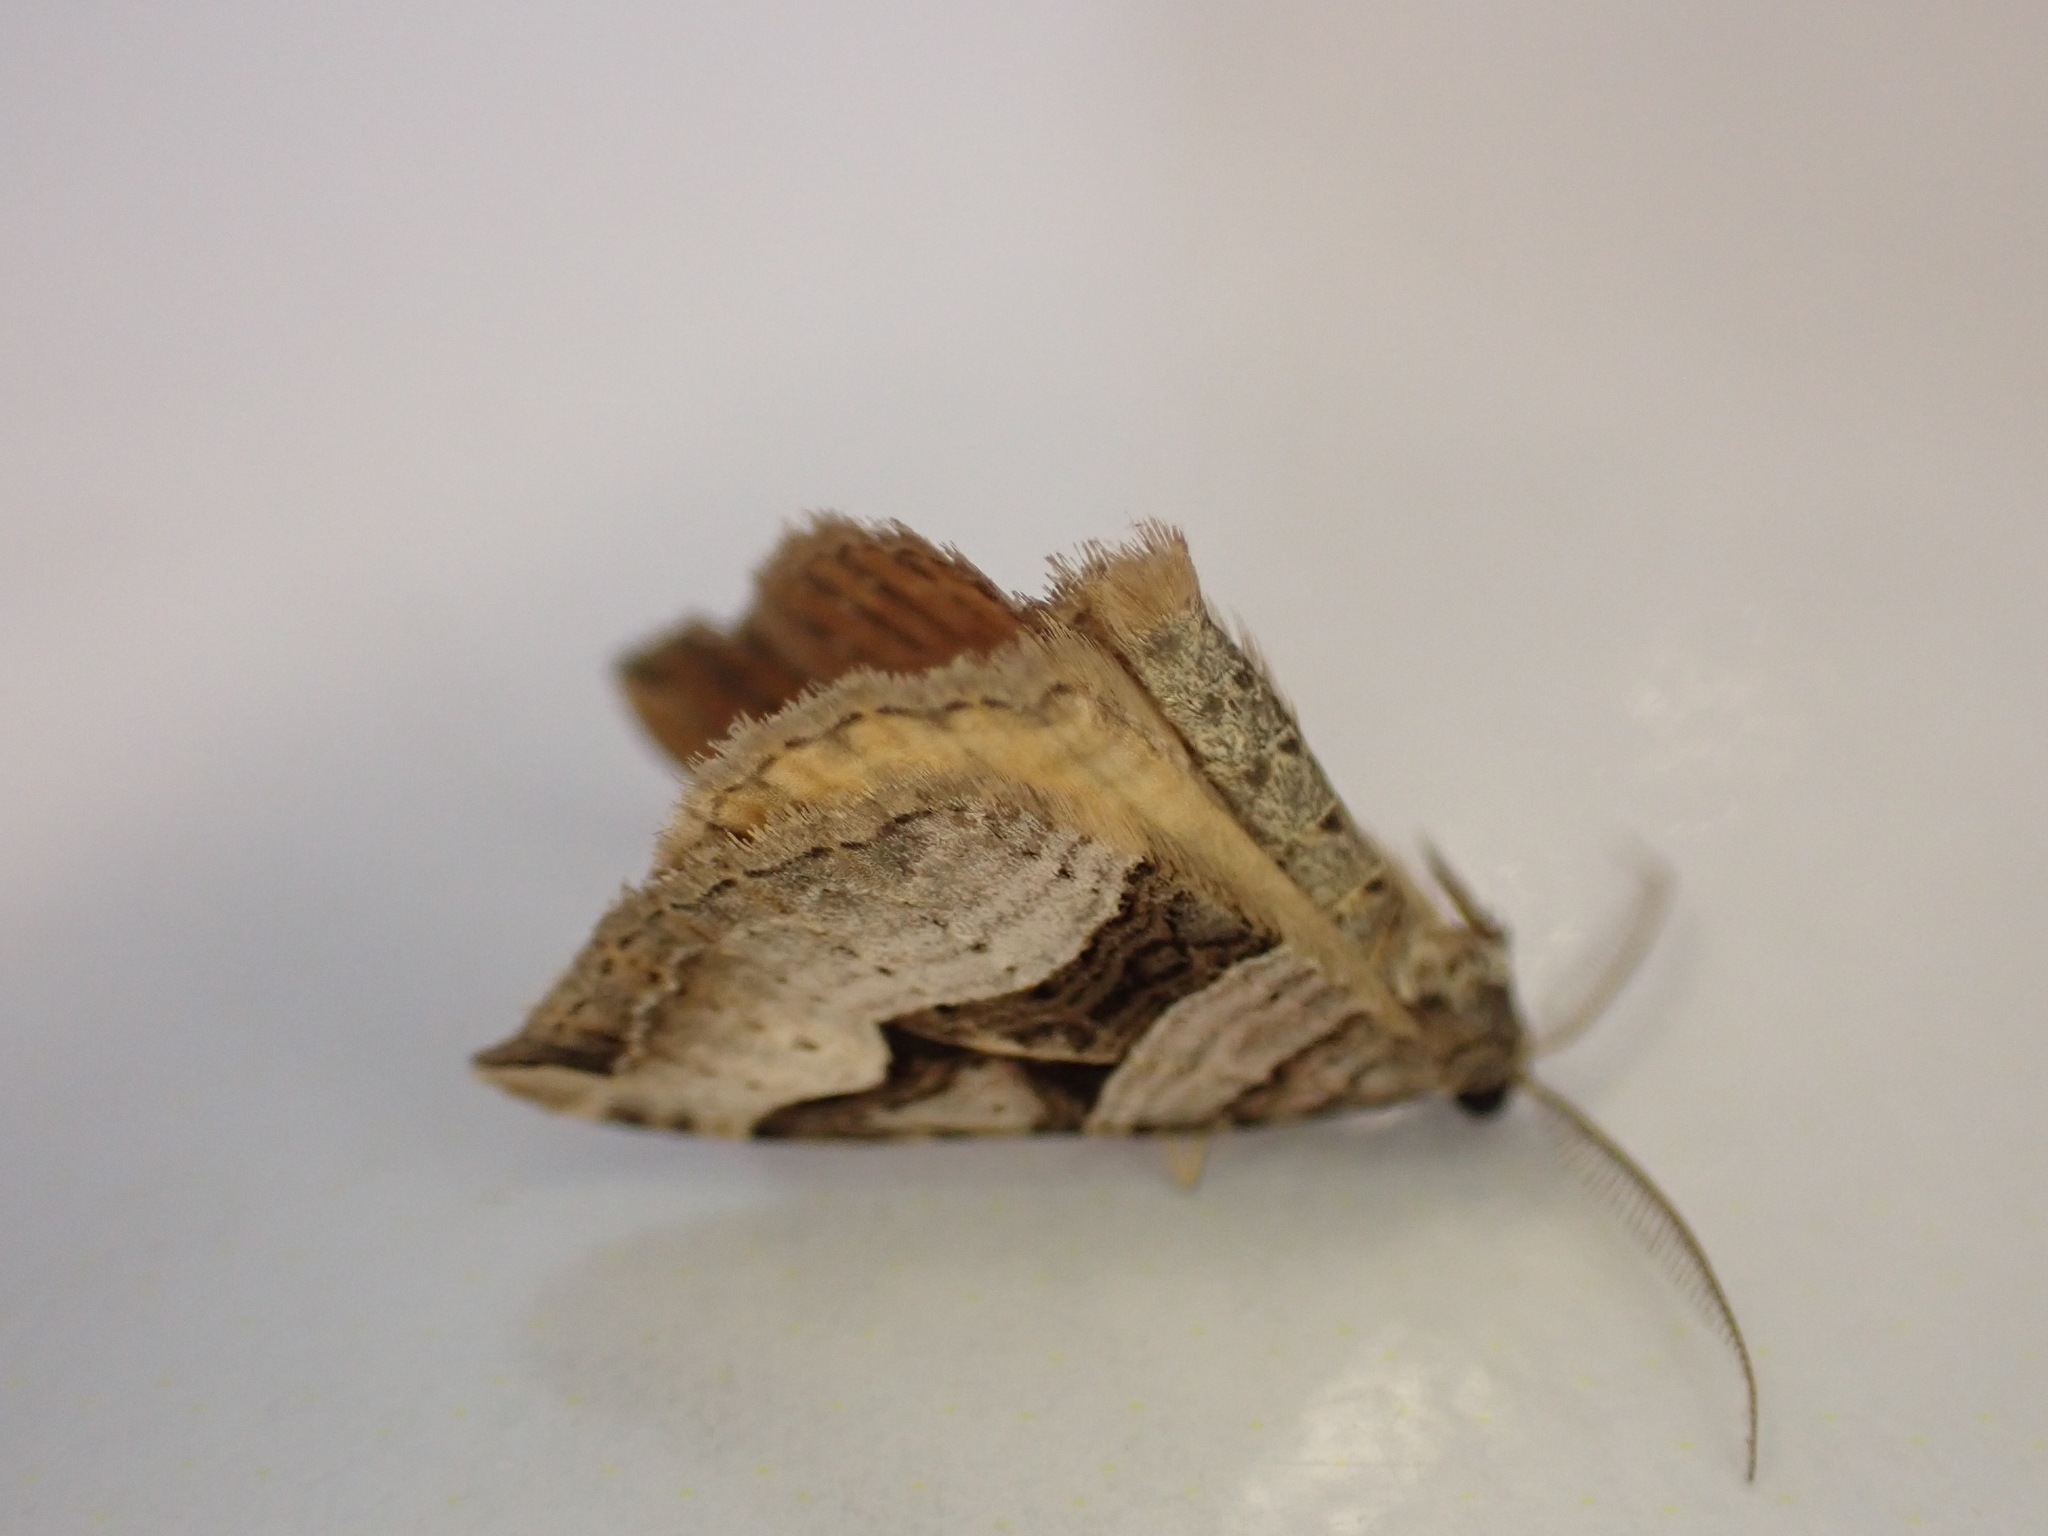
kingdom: Animalia
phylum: Arthropoda
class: Insecta
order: Lepidoptera
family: Geometridae
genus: Xanthorhoe
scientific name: Xanthorhoe semifissata
